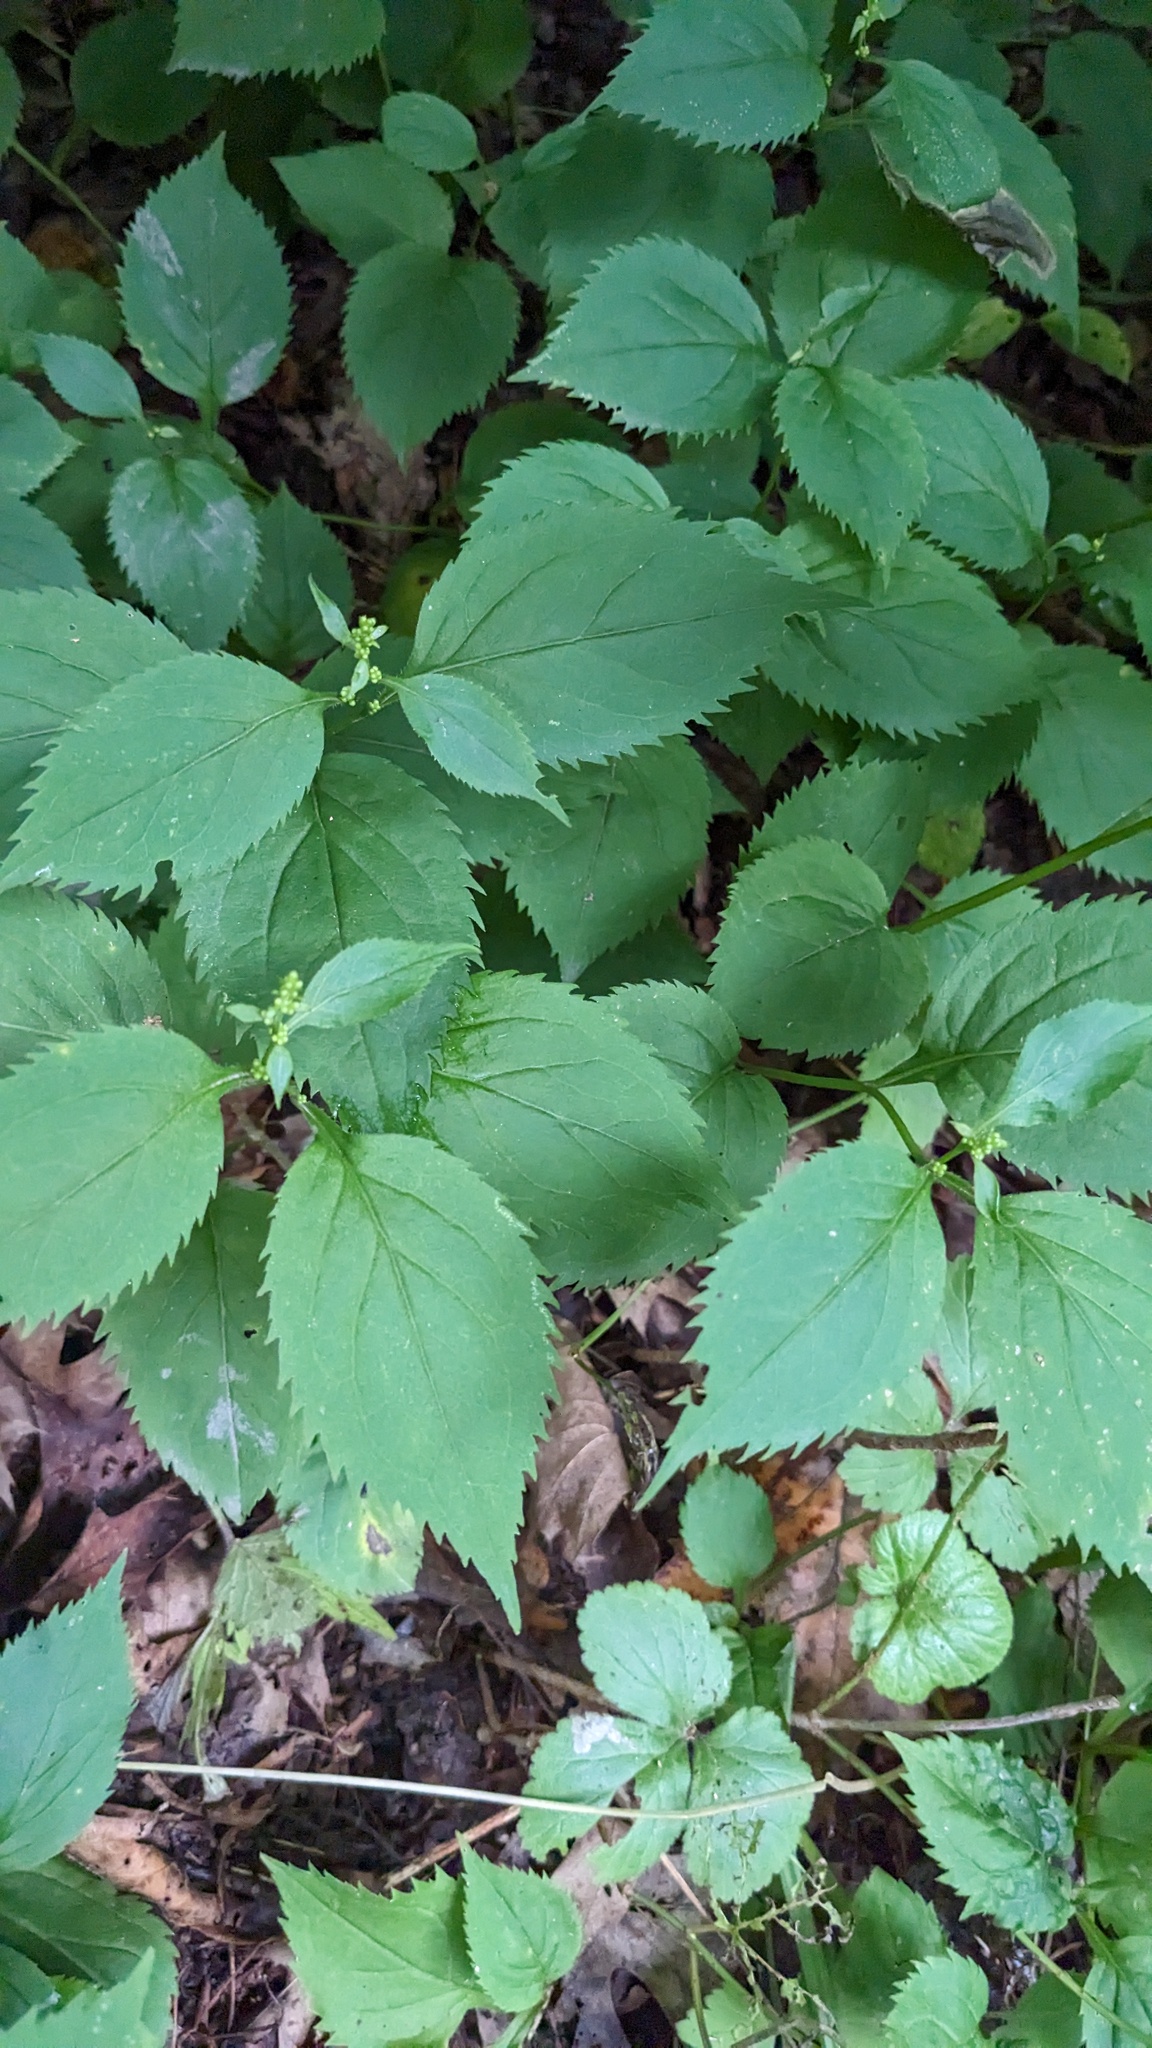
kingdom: Plantae
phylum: Tracheophyta
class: Magnoliopsida
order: Asterales
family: Asteraceae
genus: Solidago
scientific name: Solidago flexicaulis
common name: Zig-zag goldenrod
